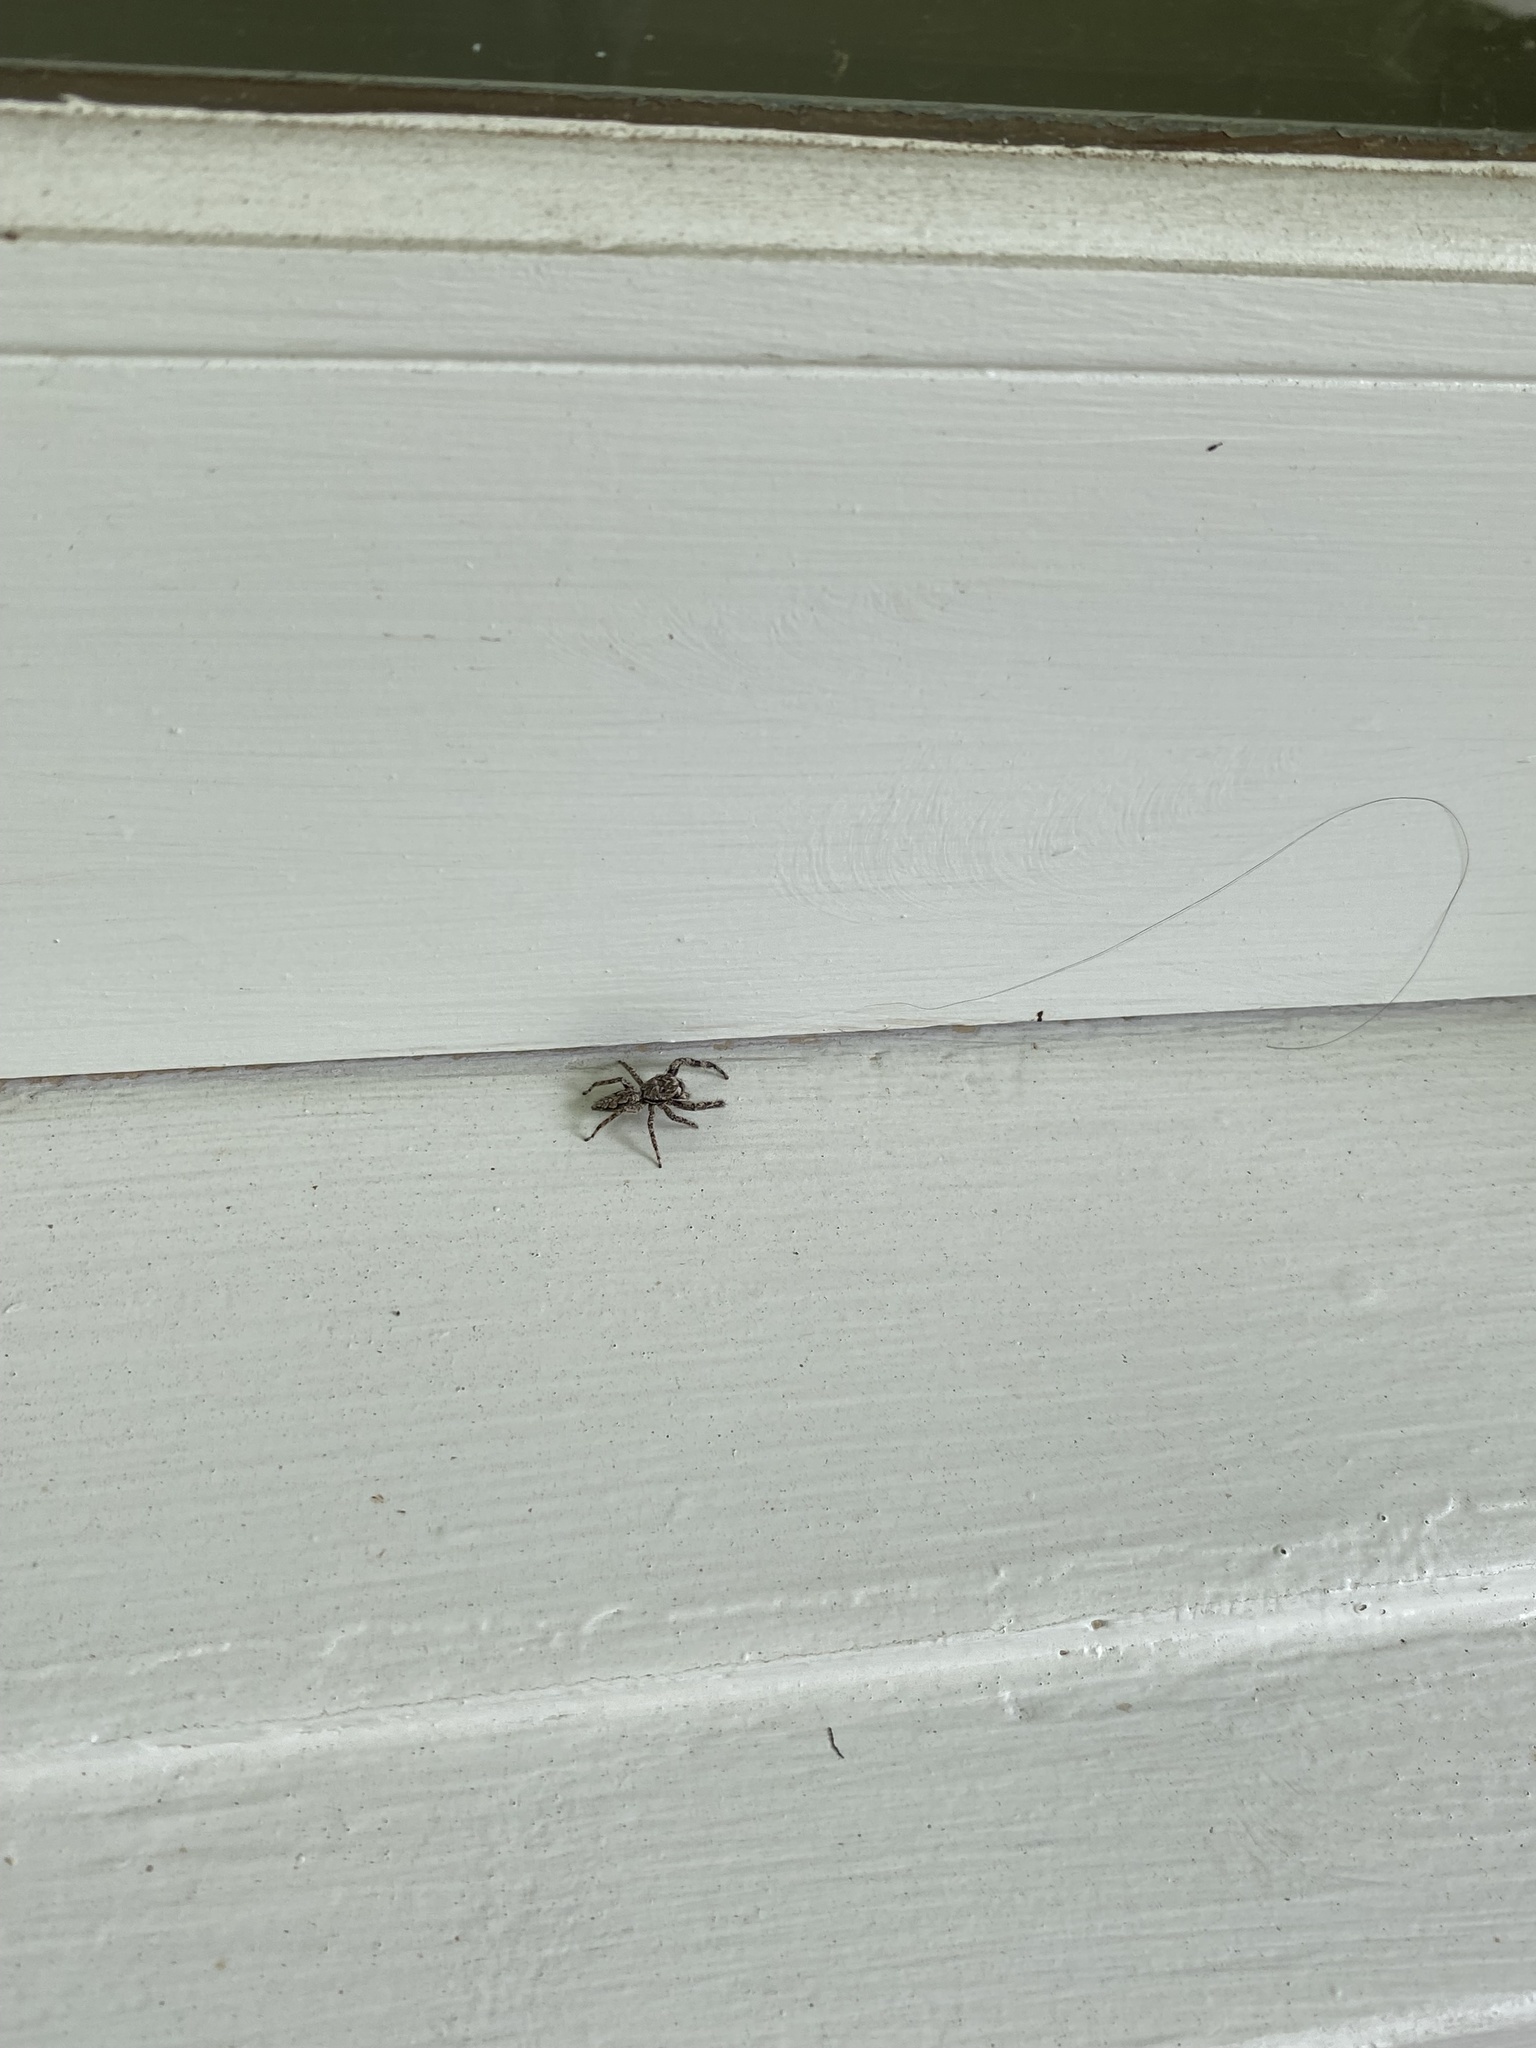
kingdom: Animalia
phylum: Arthropoda
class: Arachnida
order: Araneae
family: Salticidae
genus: Platycryptus
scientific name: Platycryptus undatus
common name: Tan jumping spider
